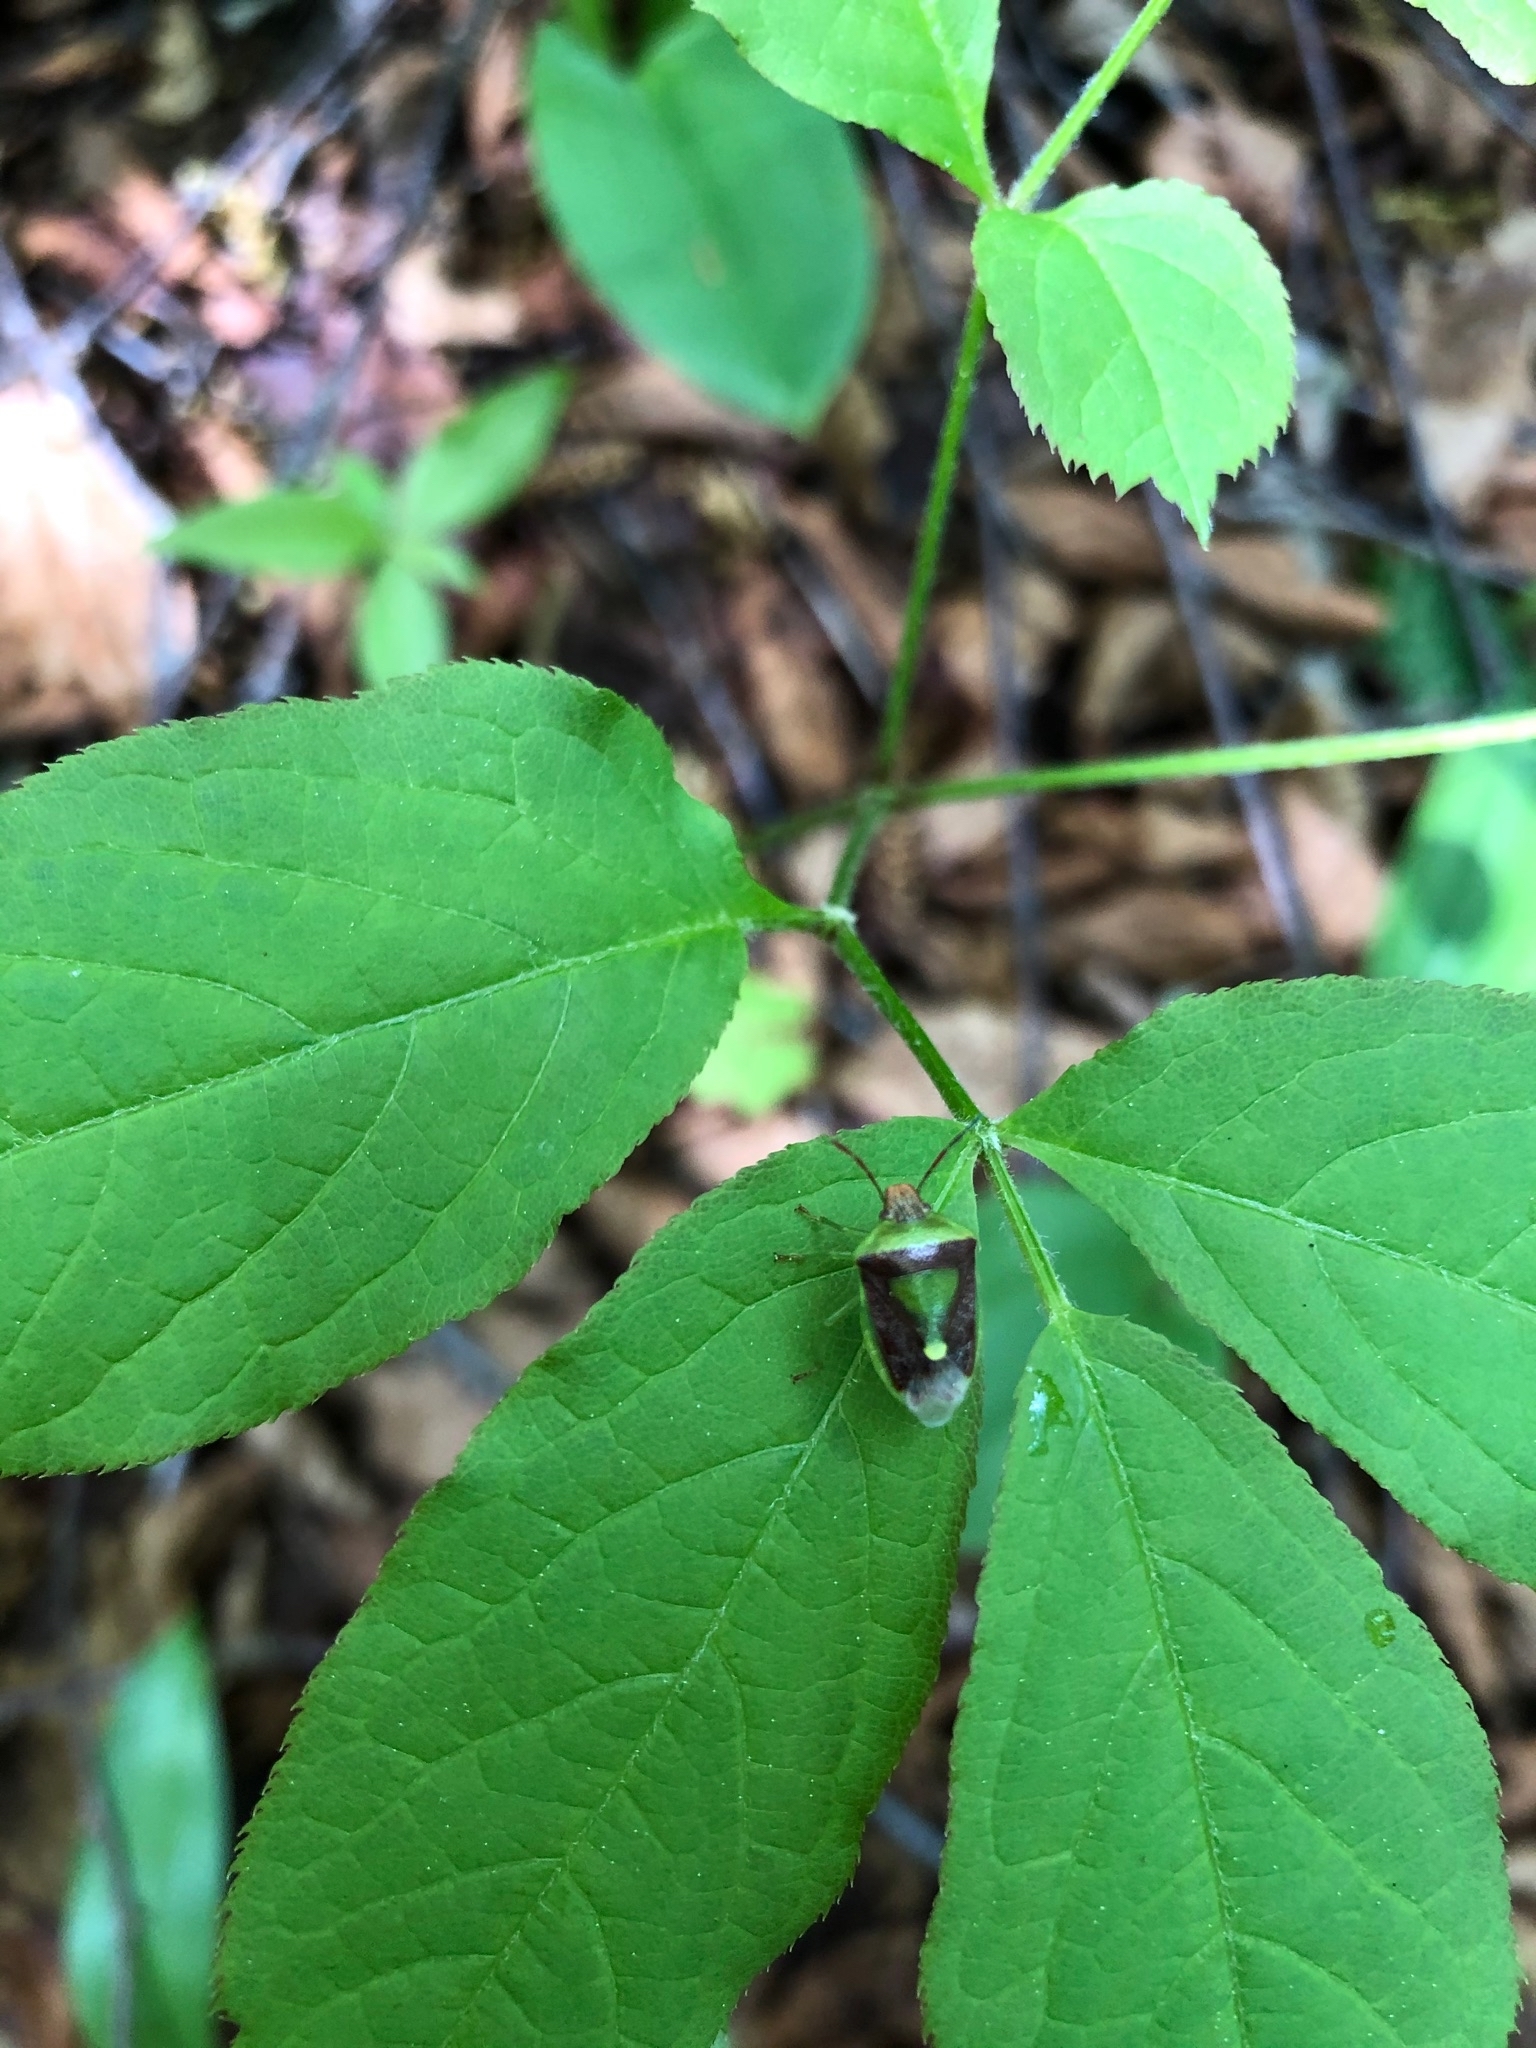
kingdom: Animalia
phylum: Arthropoda
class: Insecta
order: Hemiptera
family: Pentatomidae
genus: Banasa
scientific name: Banasa dimidiata
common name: Green burgundy stink bug
